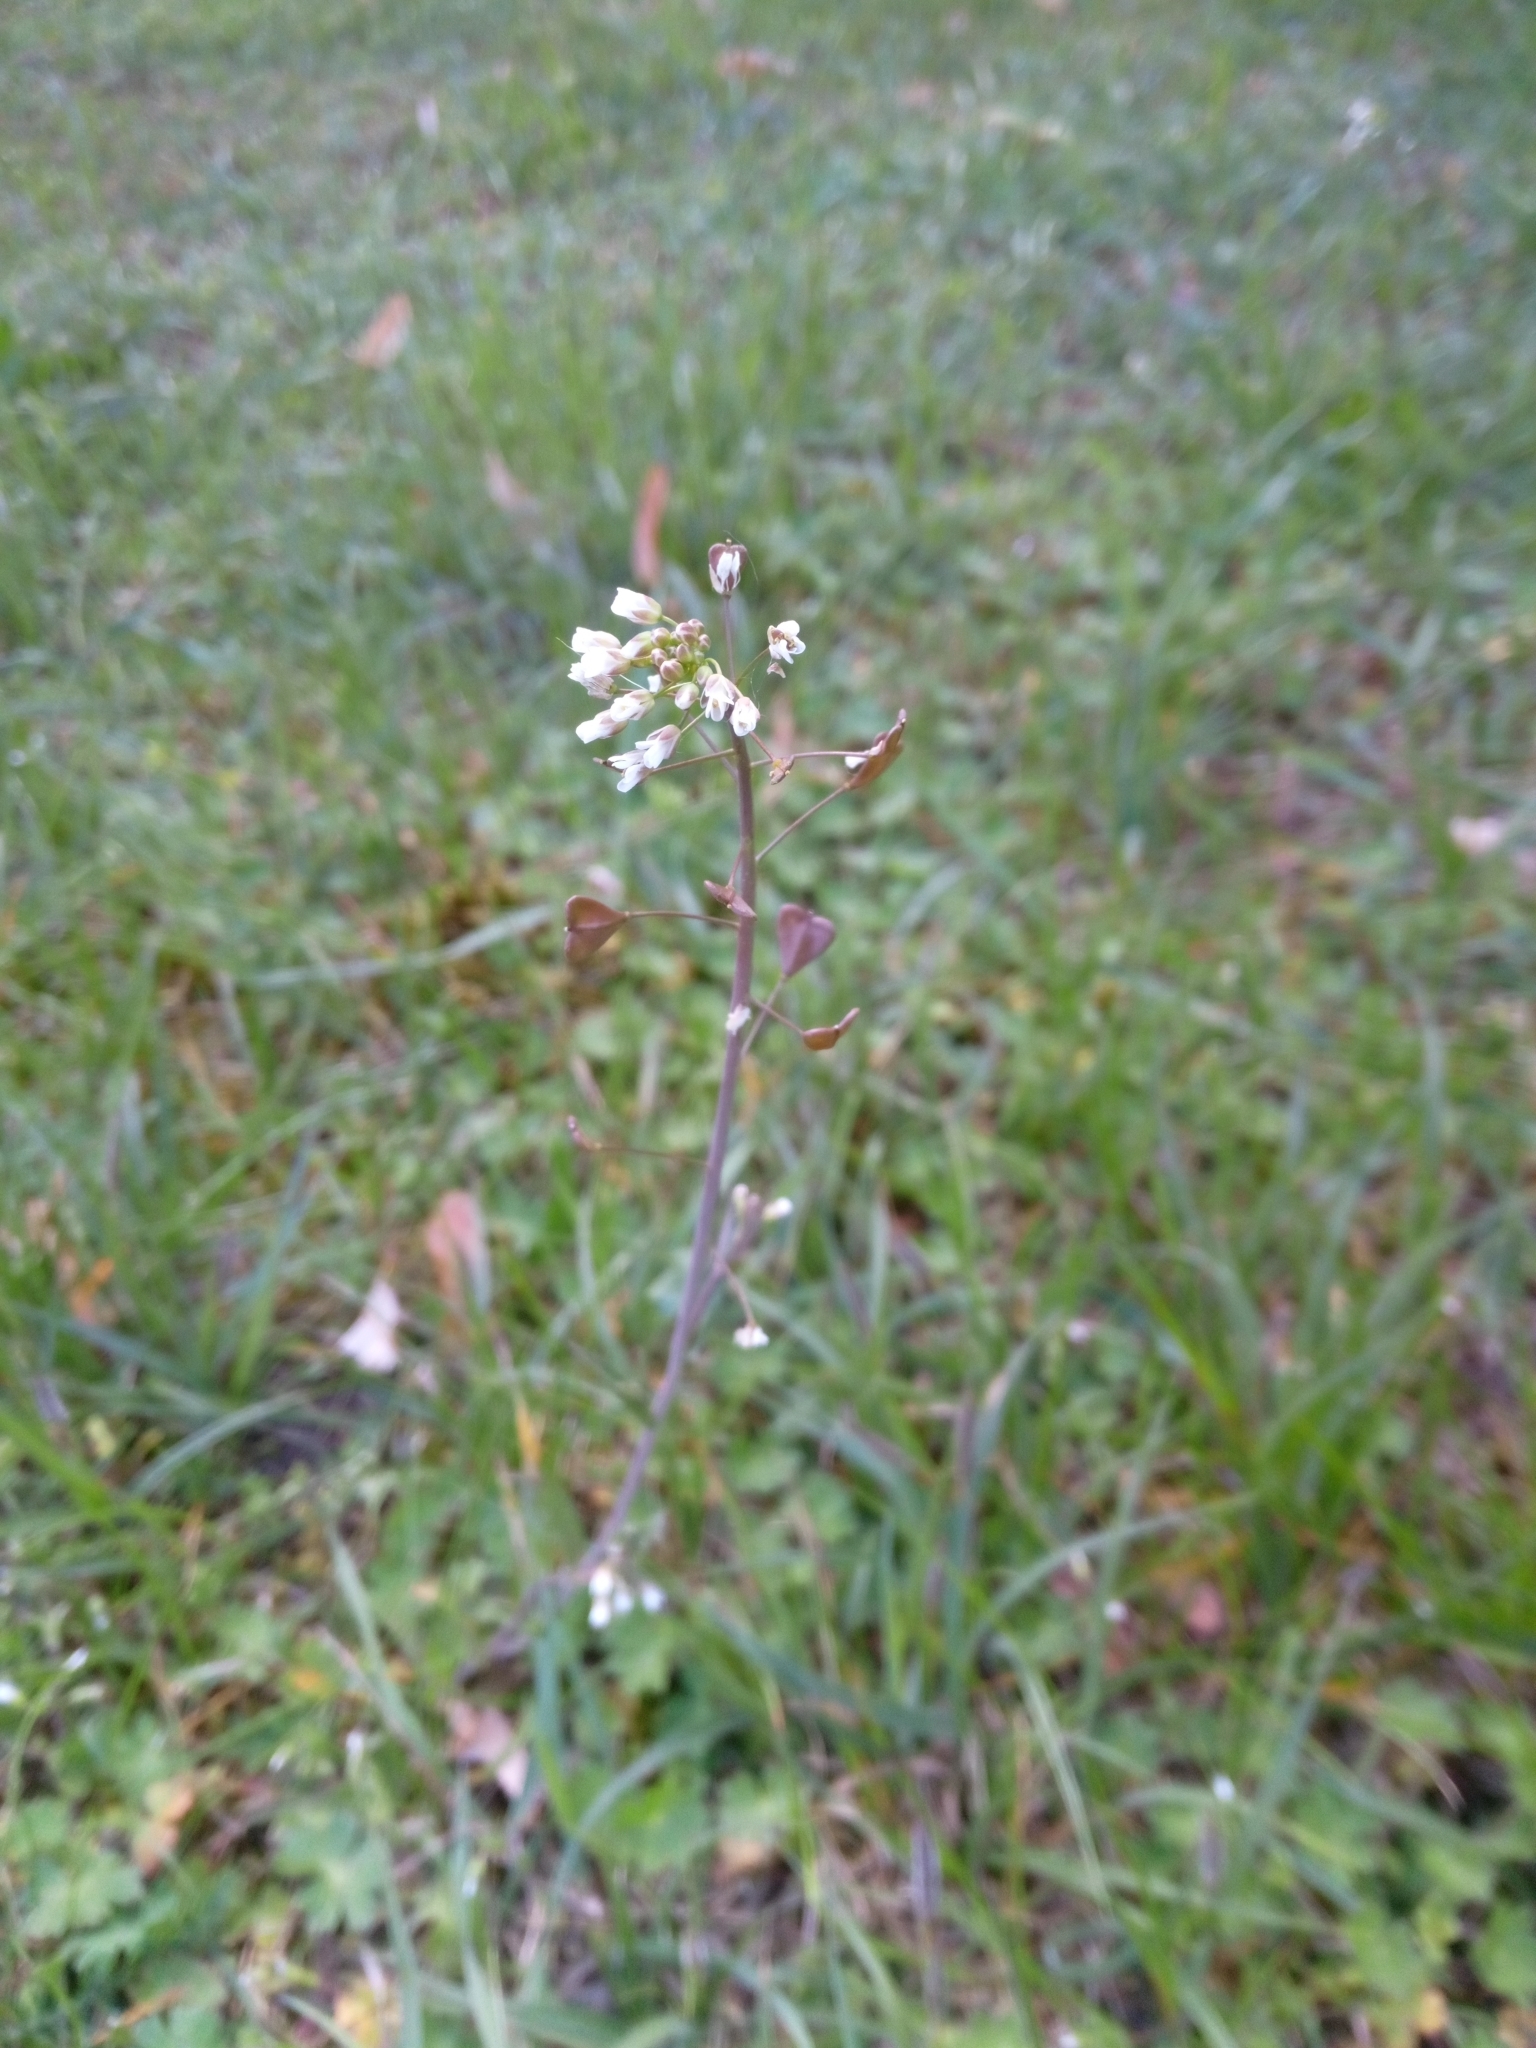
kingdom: Plantae
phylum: Tracheophyta
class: Magnoliopsida
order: Brassicales
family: Brassicaceae
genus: Capsella
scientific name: Capsella bursa-pastoris
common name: Shepherd's purse
